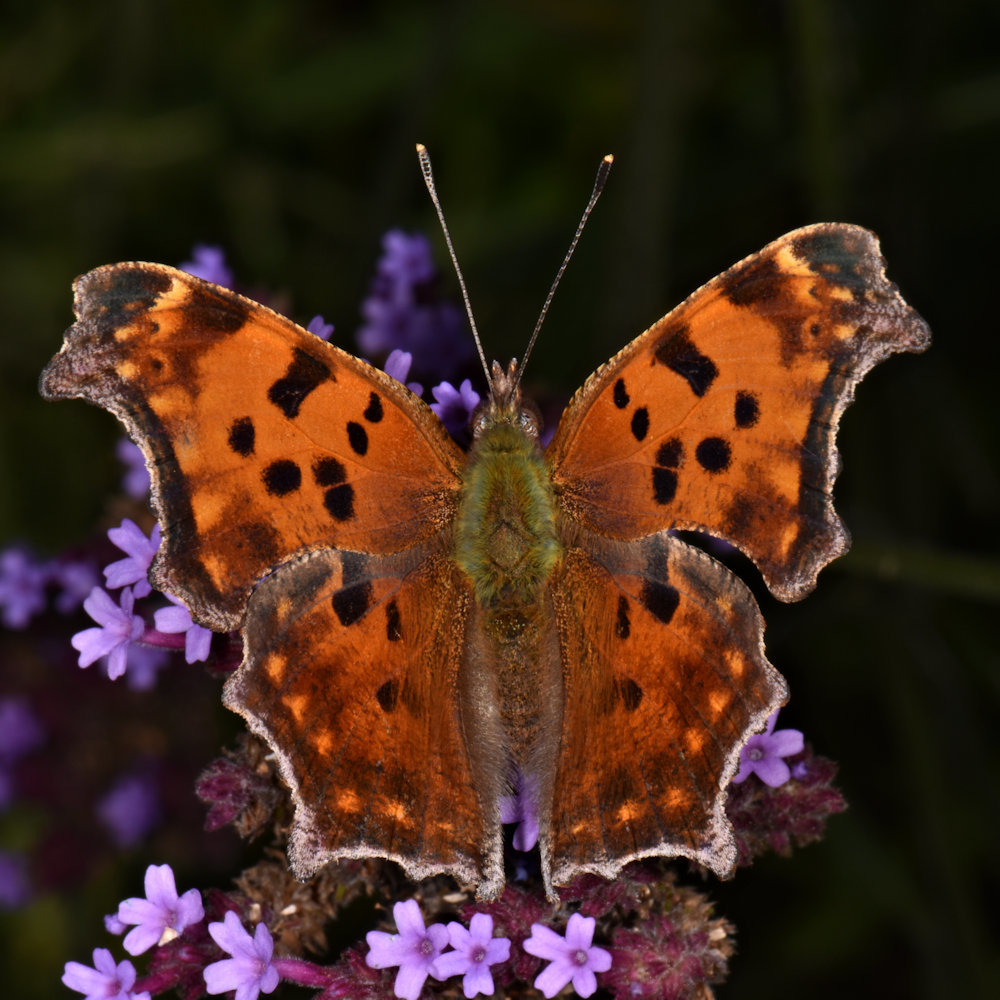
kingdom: Animalia
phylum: Arthropoda
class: Insecta
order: Lepidoptera
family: Nymphalidae
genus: Polygonia
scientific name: Polygonia comma
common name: Eastern comma
